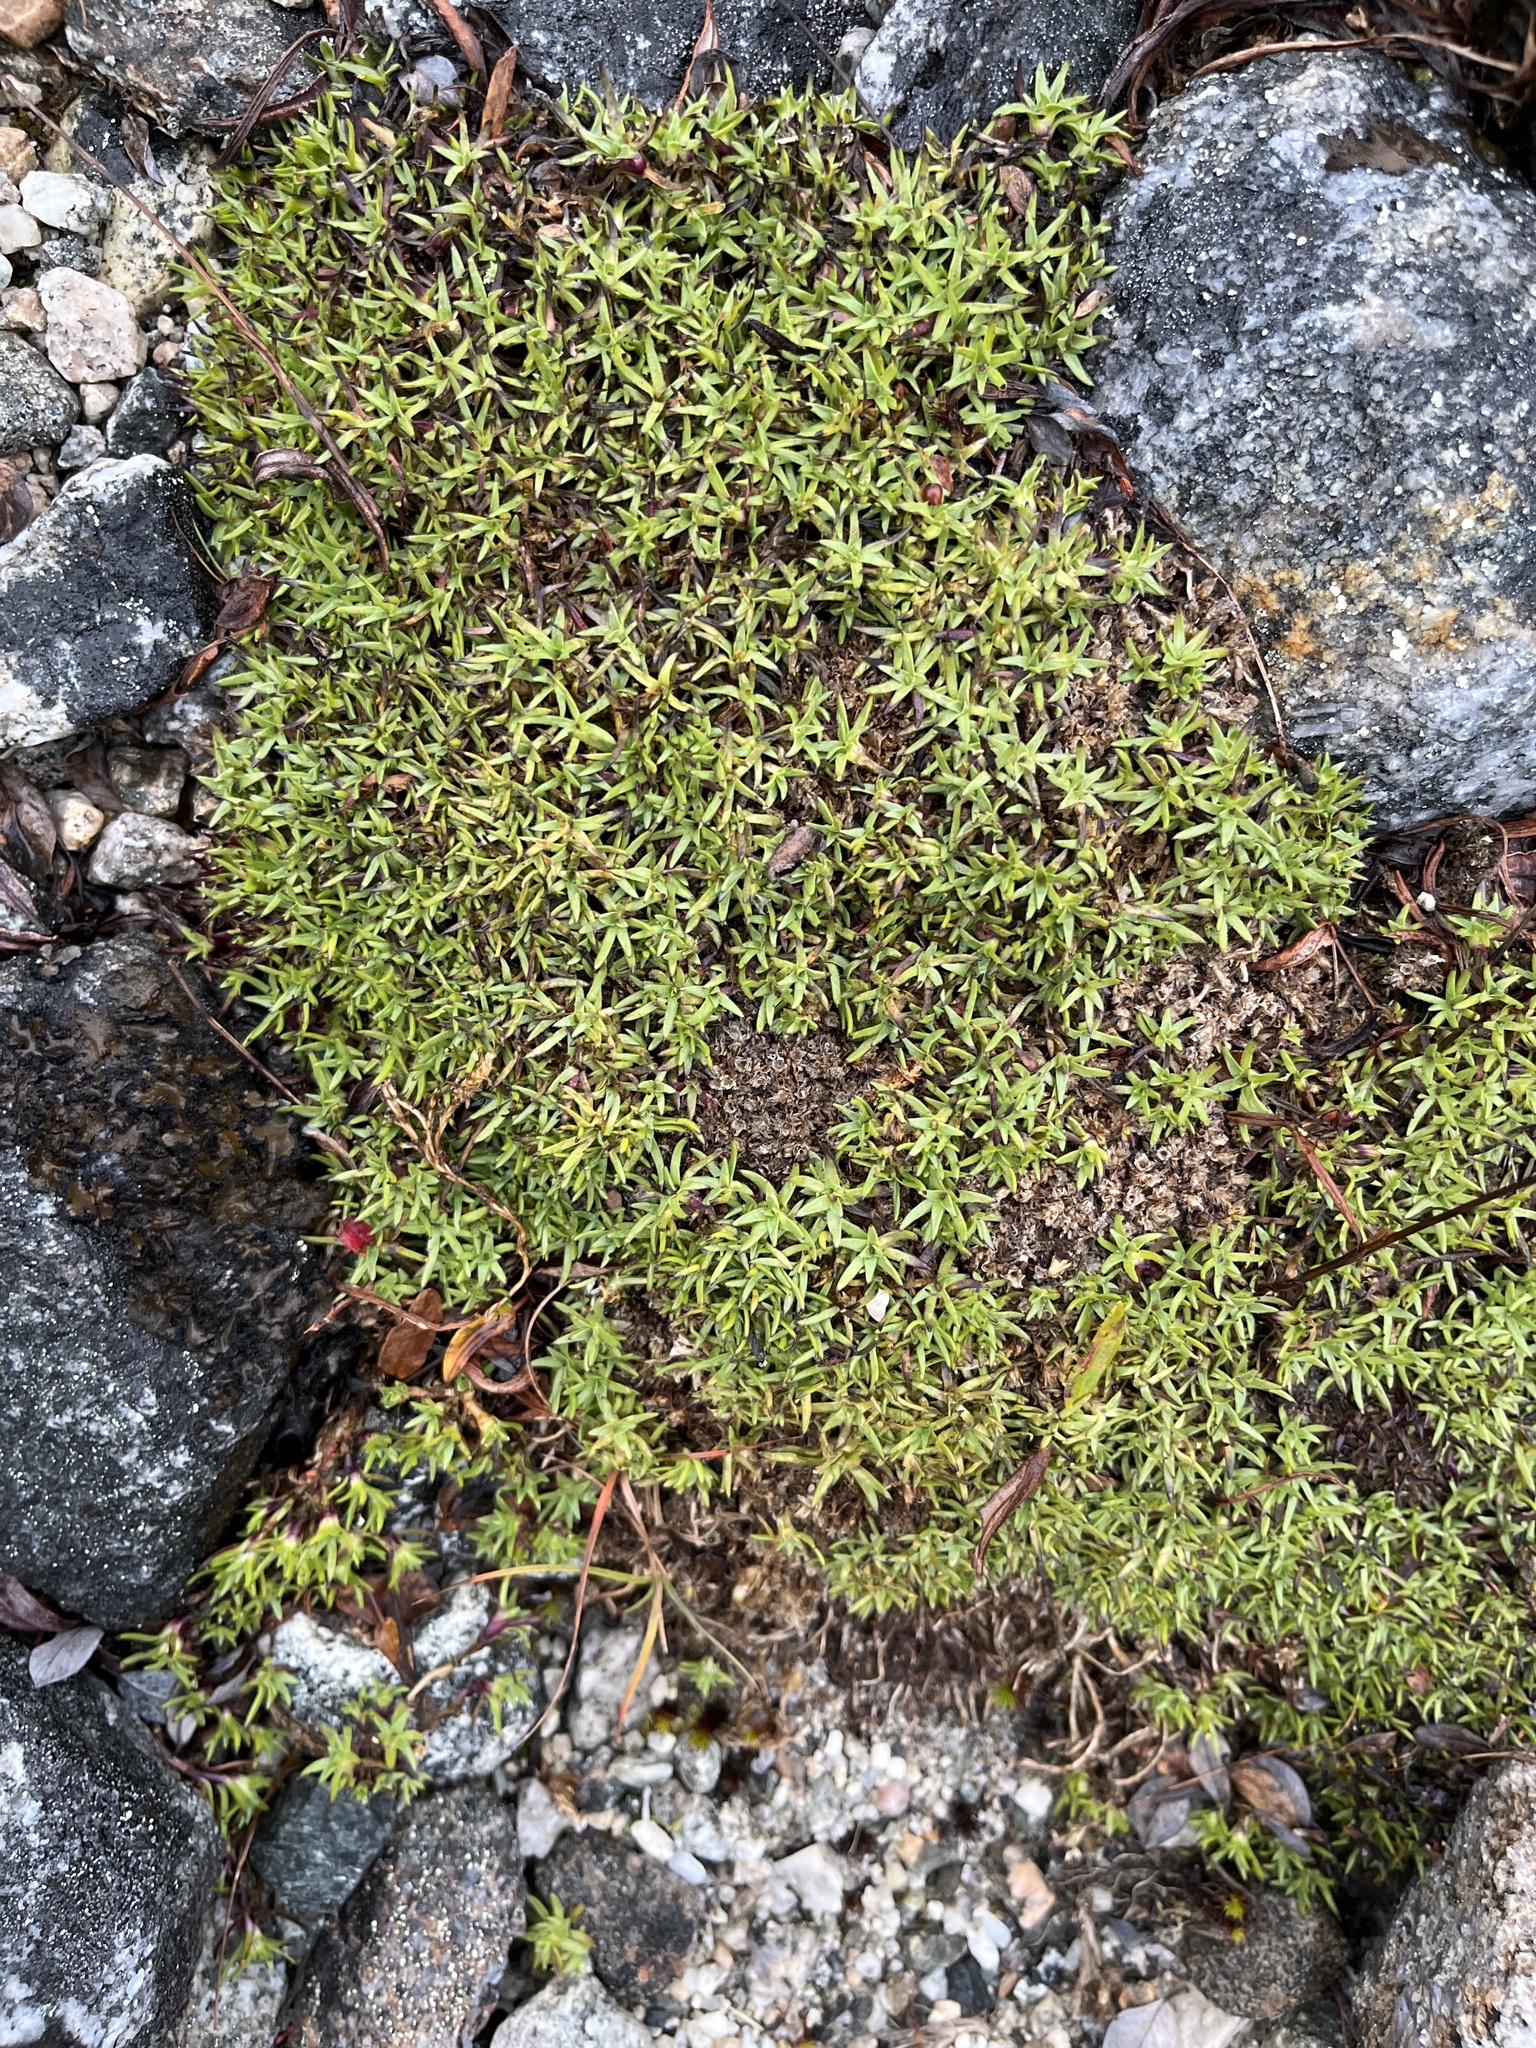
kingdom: Plantae
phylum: Tracheophyta
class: Magnoliopsida
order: Caryophyllales
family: Caryophyllaceae
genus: Silene
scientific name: Silene acaulis
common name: Moss campion
